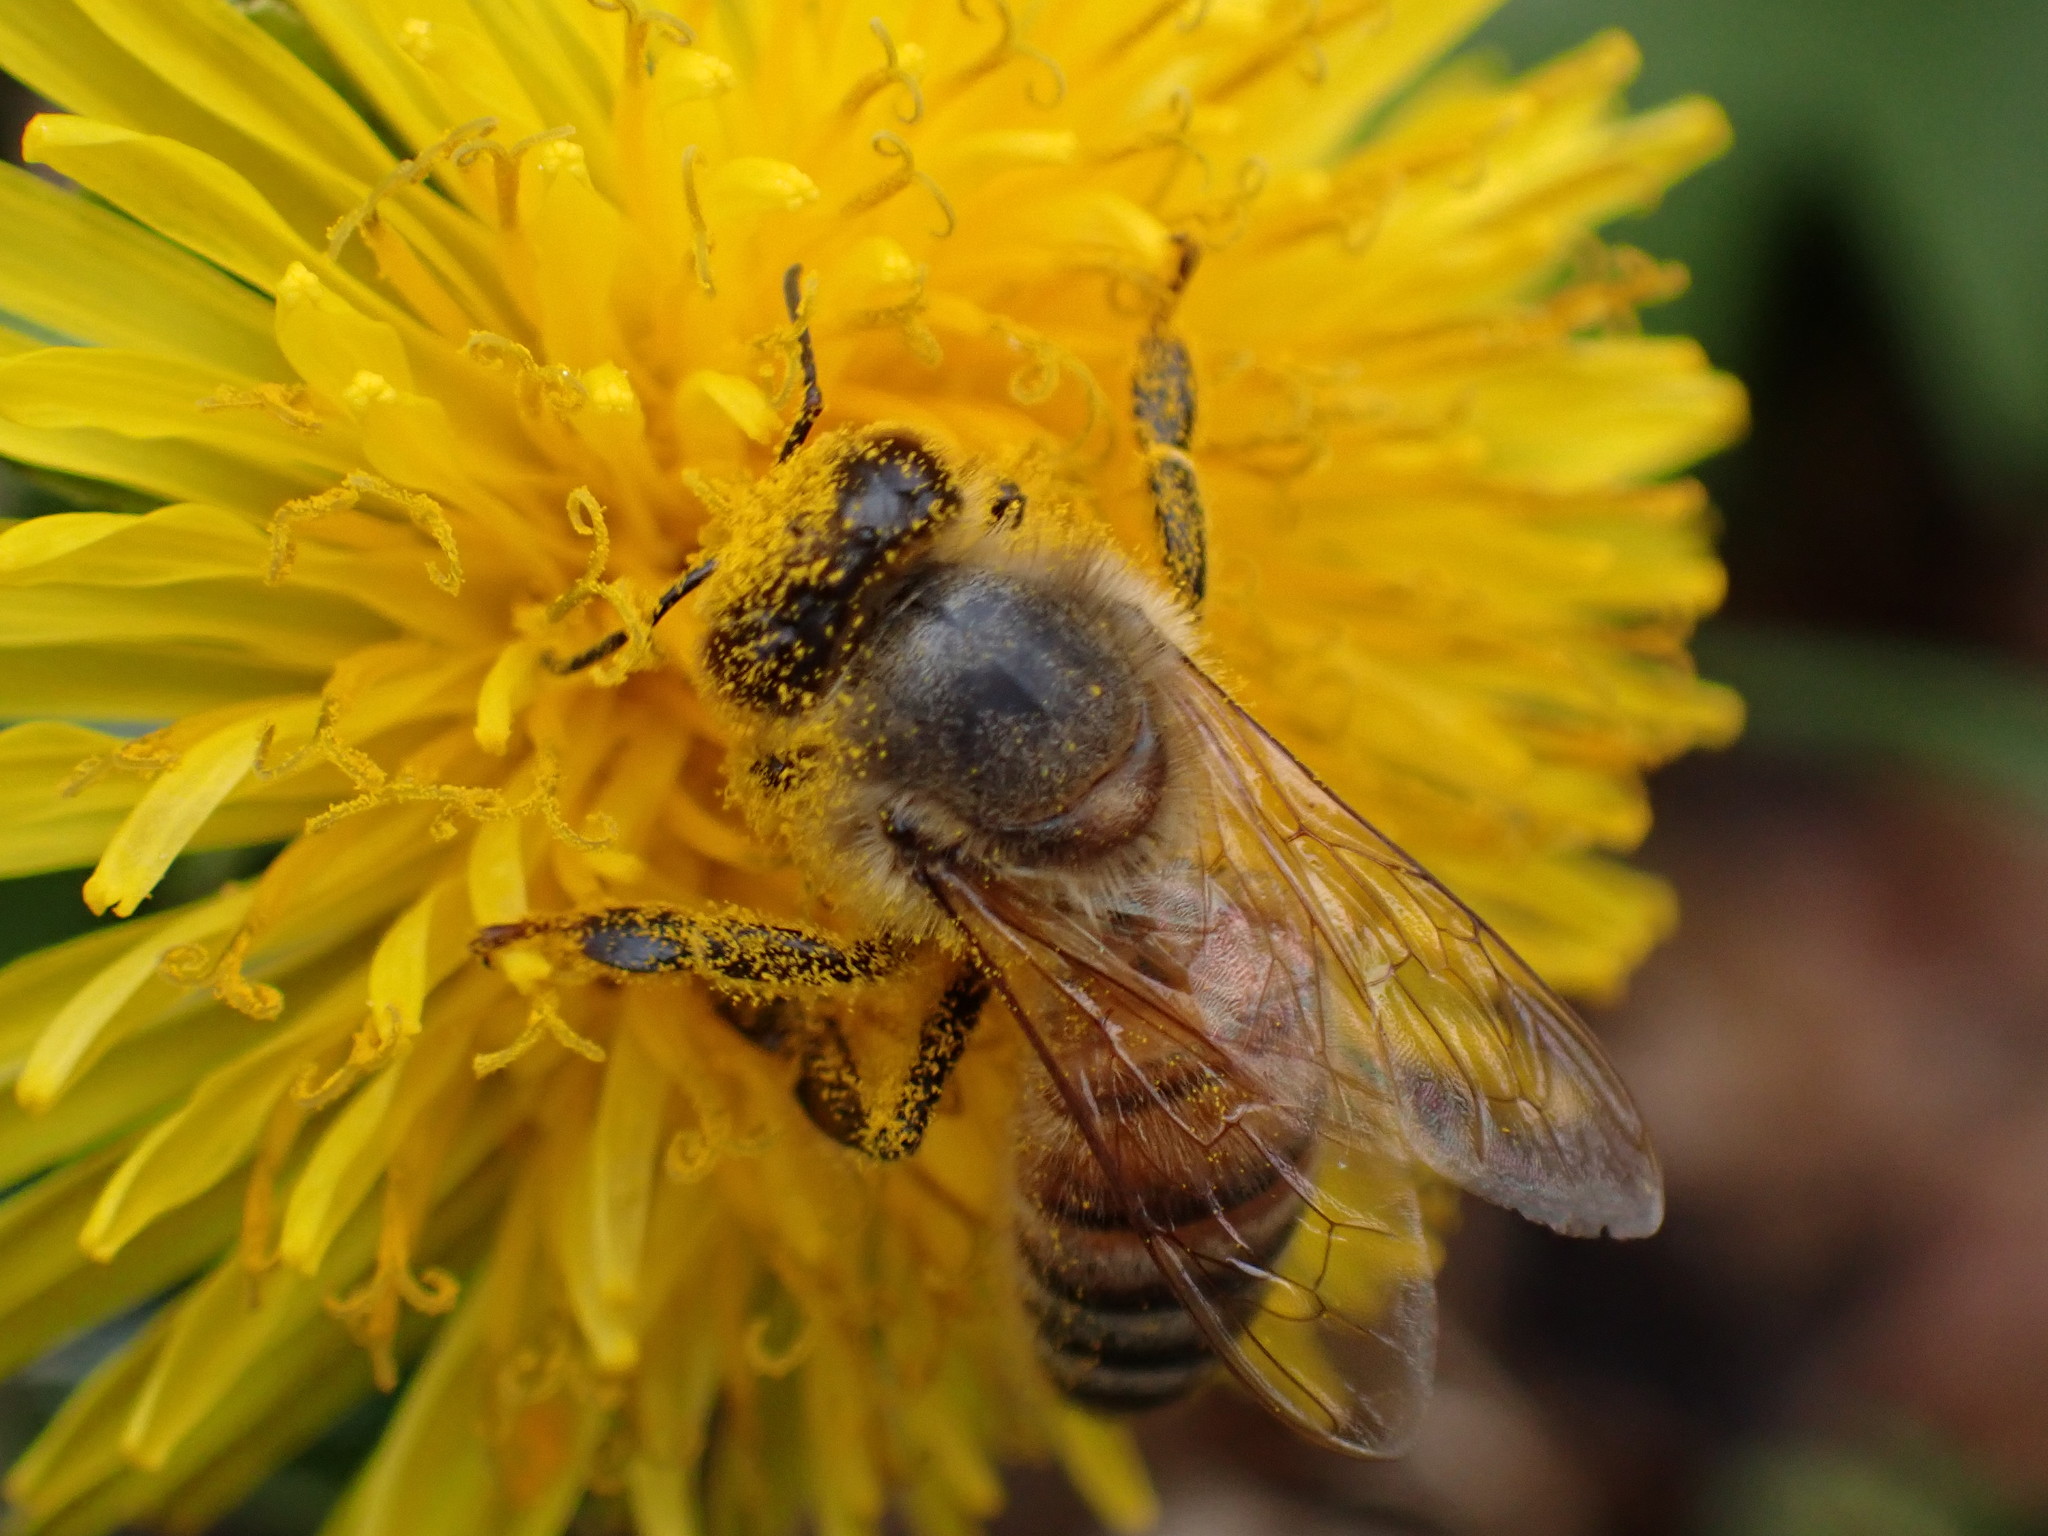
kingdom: Animalia
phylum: Arthropoda
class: Insecta
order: Hymenoptera
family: Apidae
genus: Apis
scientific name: Apis mellifera
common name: Honey bee
